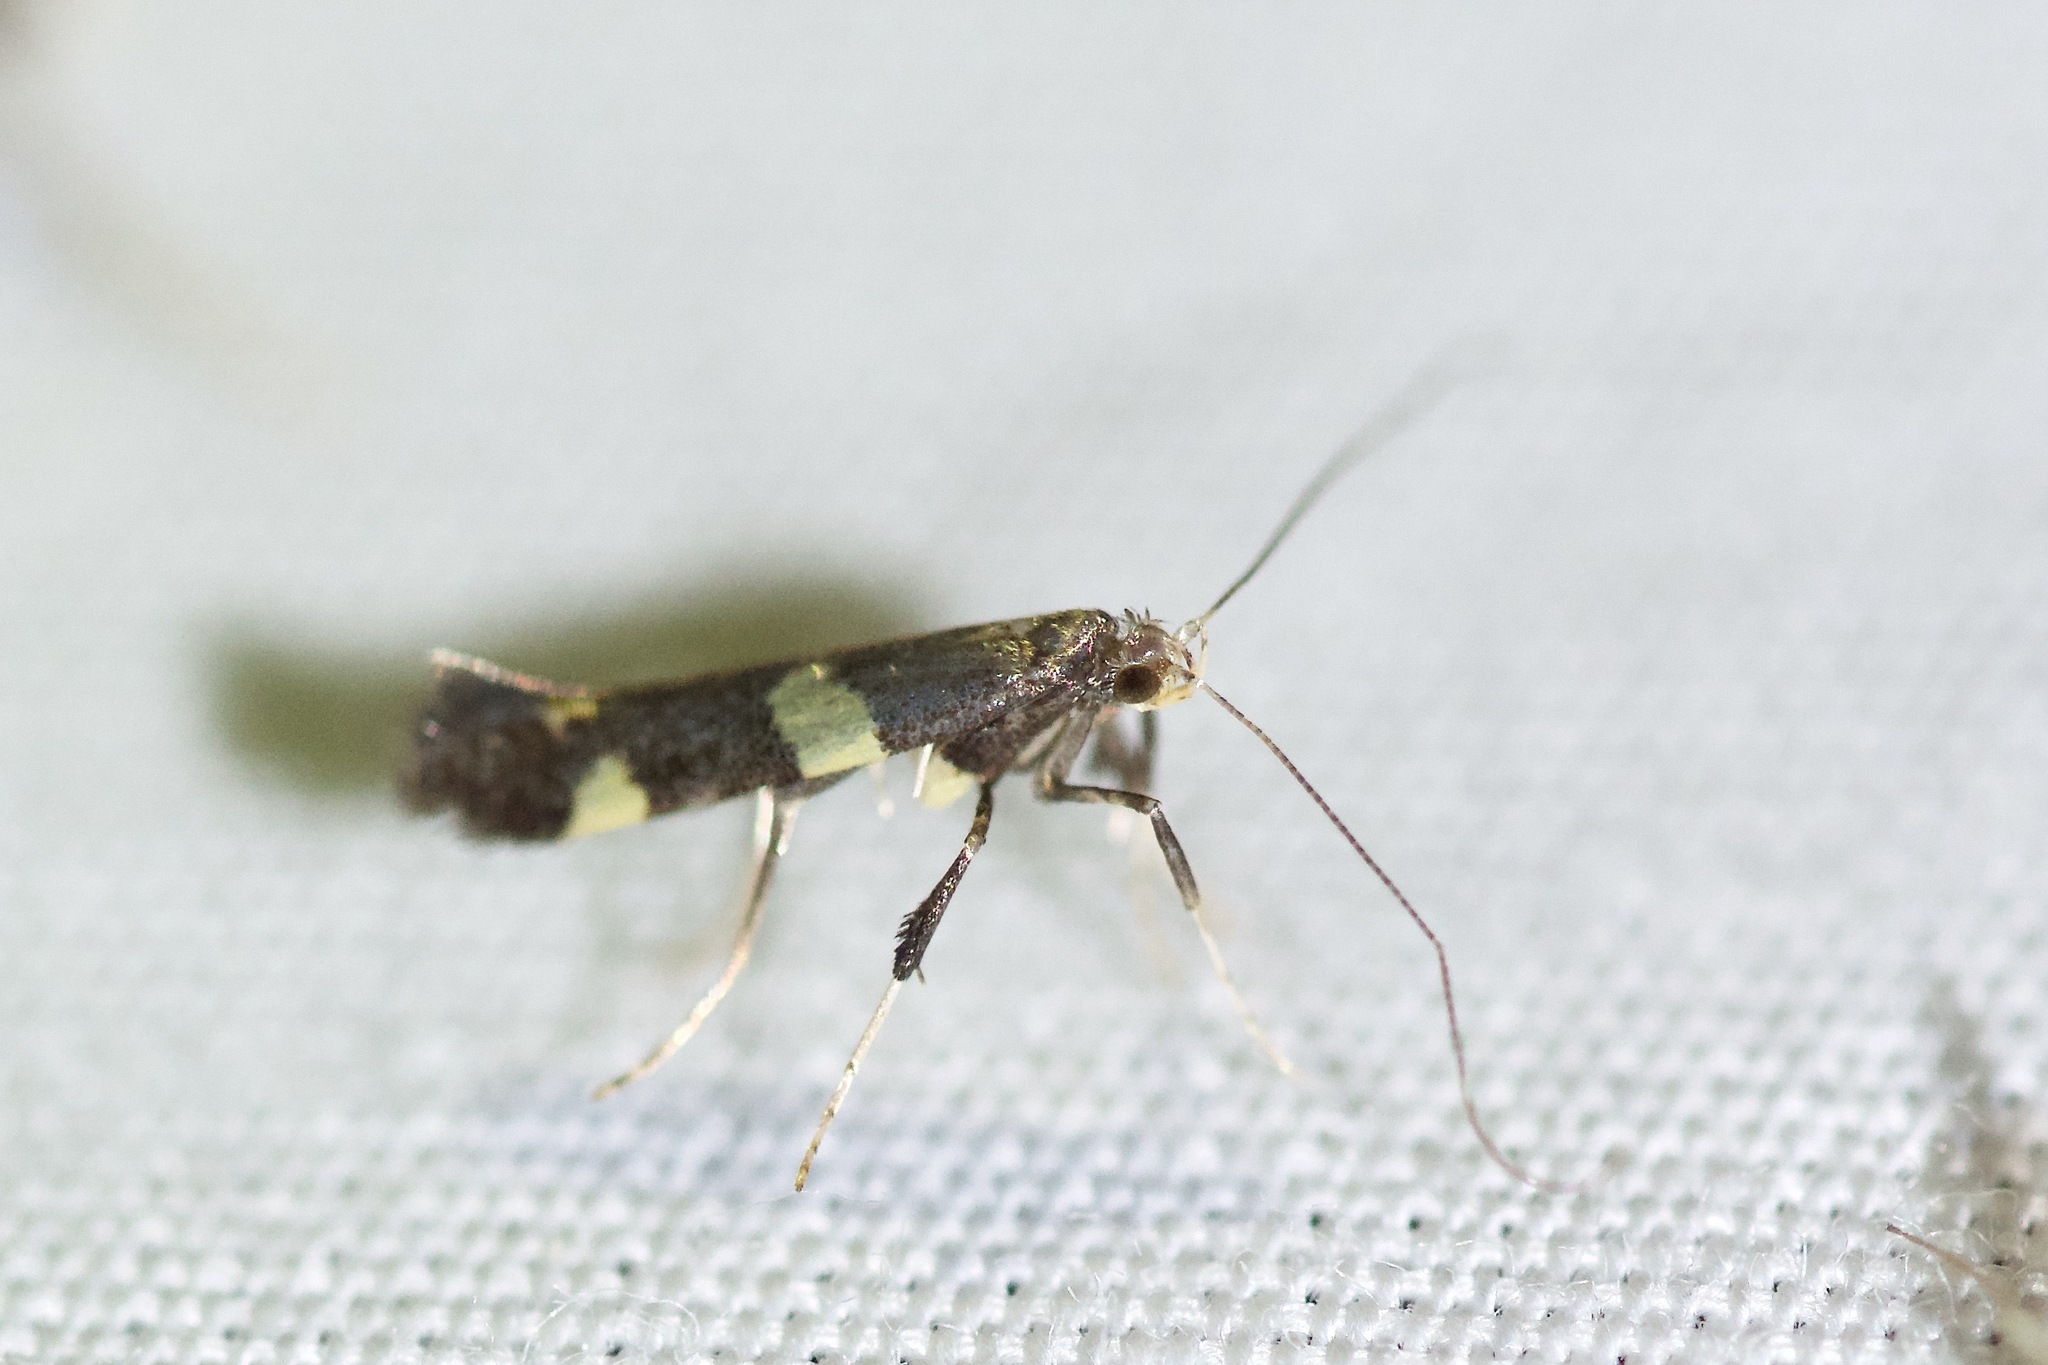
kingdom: Animalia
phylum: Arthropoda
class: Insecta
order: Lepidoptera
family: Gracillariidae
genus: Caloptilia
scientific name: Caloptilia canadensisella
